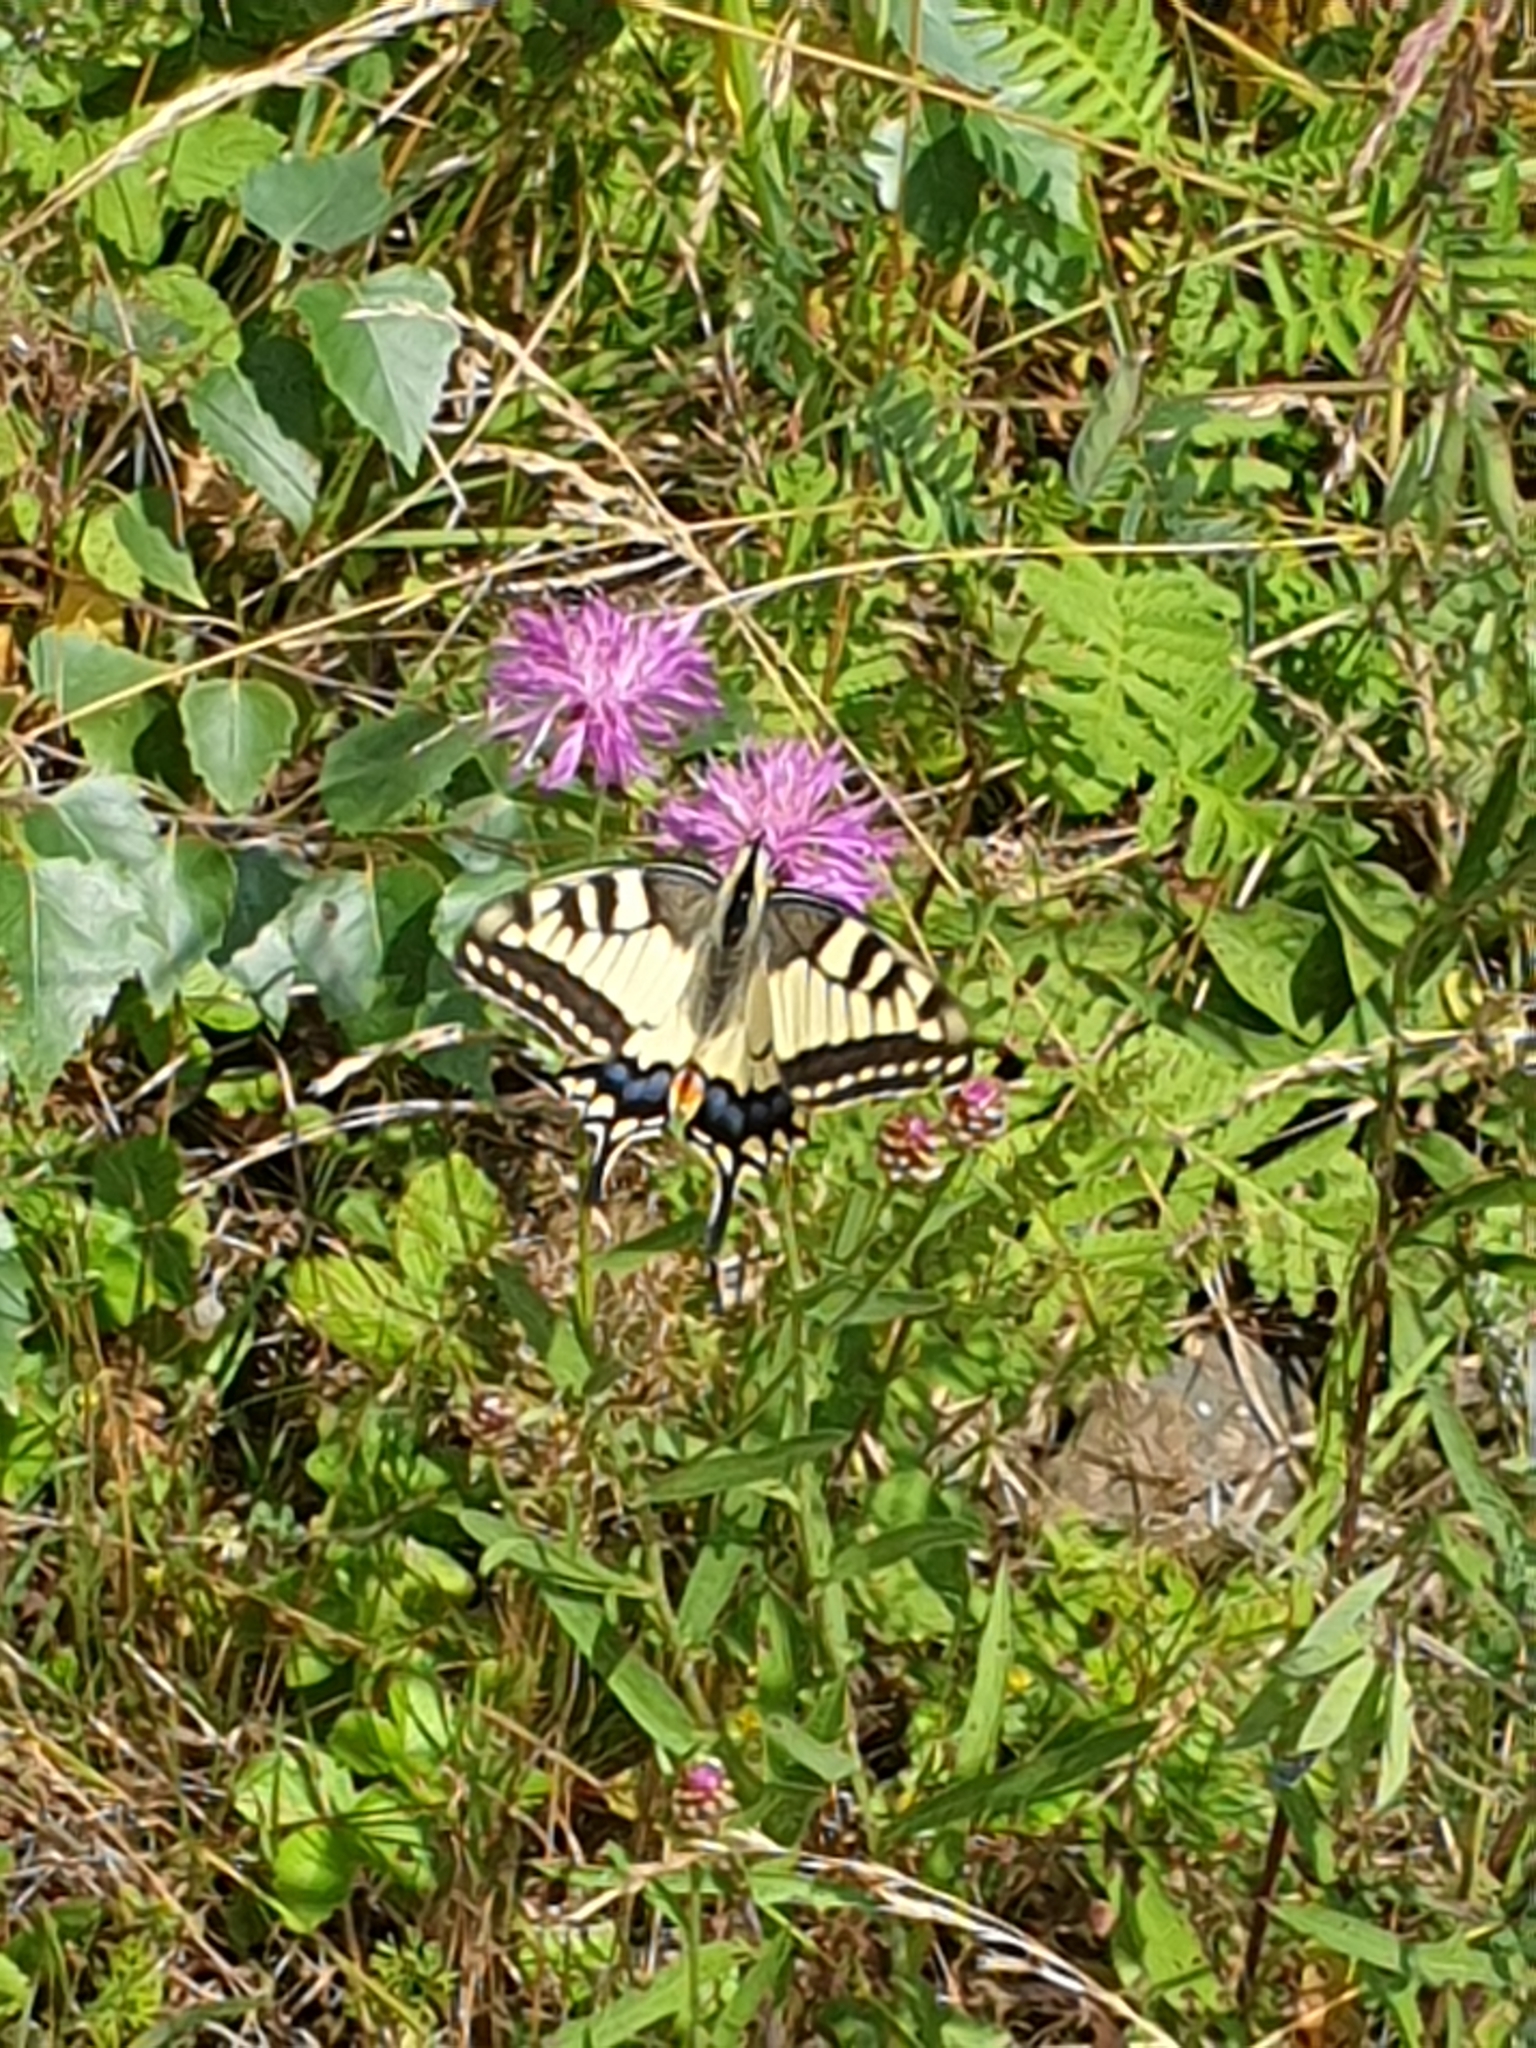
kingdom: Animalia
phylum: Arthropoda
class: Insecta
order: Lepidoptera
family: Papilionidae
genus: Papilio
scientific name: Papilio machaon
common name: Swallowtail
